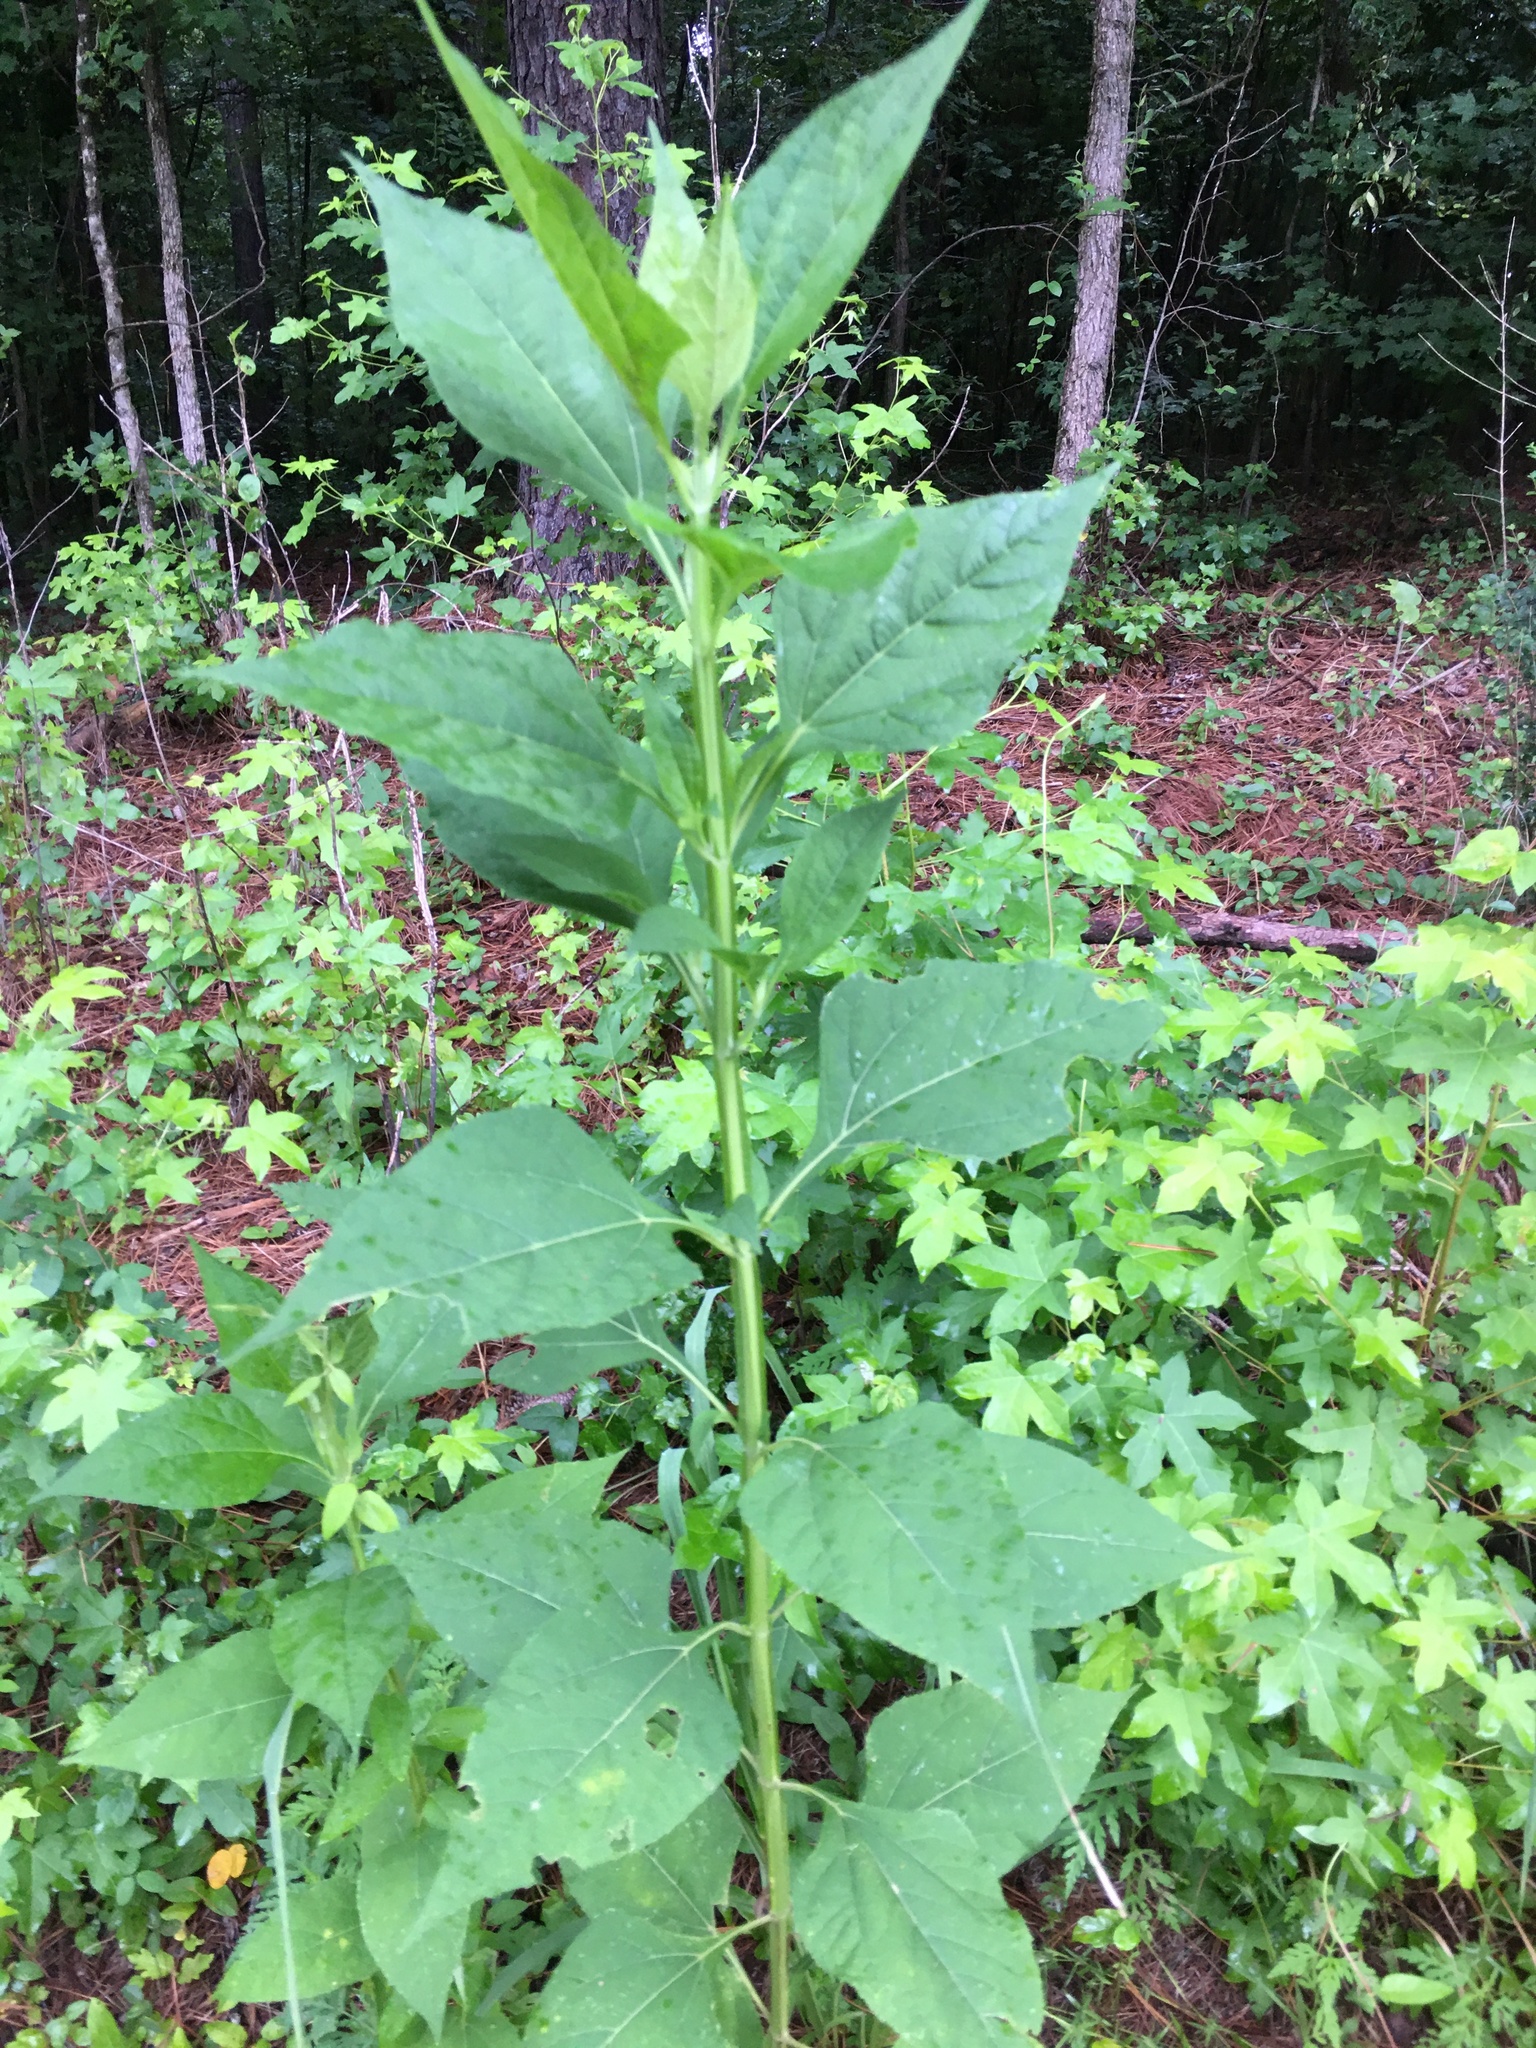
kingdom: Plantae
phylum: Tracheophyta
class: Magnoliopsida
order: Asterales
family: Asteraceae
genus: Verbesina
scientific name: Verbesina occidentalis
